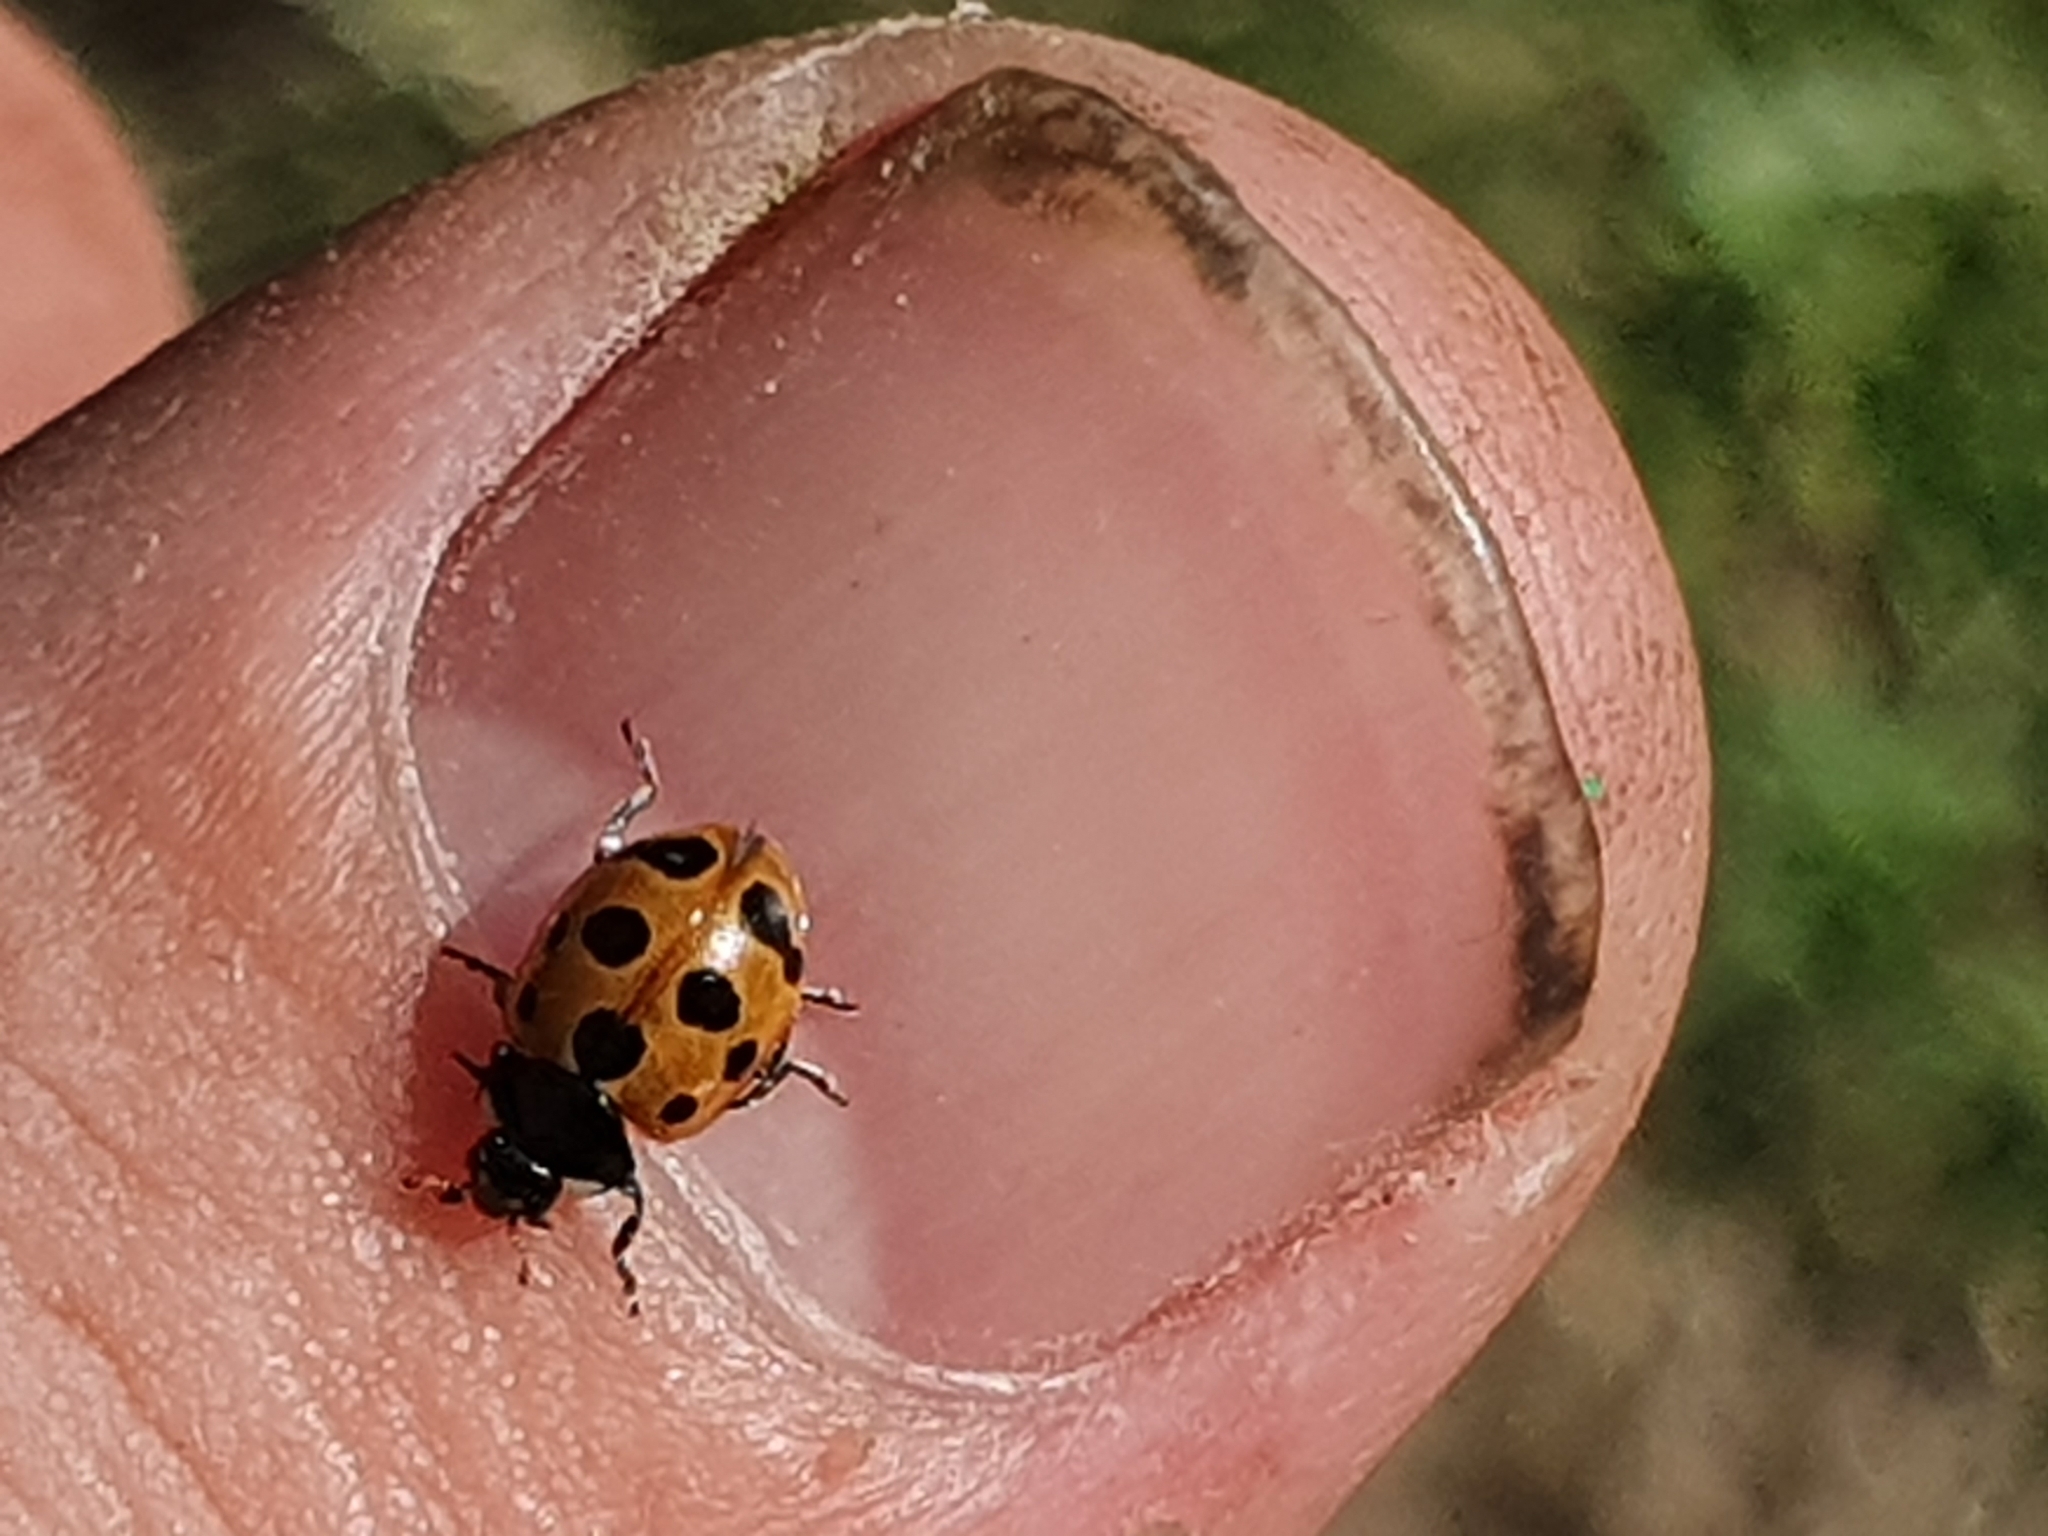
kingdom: Animalia
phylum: Arthropoda
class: Insecta
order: Coleoptera
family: Coccinellidae
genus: Coccinella
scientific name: Coccinella undecimpunctata
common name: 11-spot ladybird
